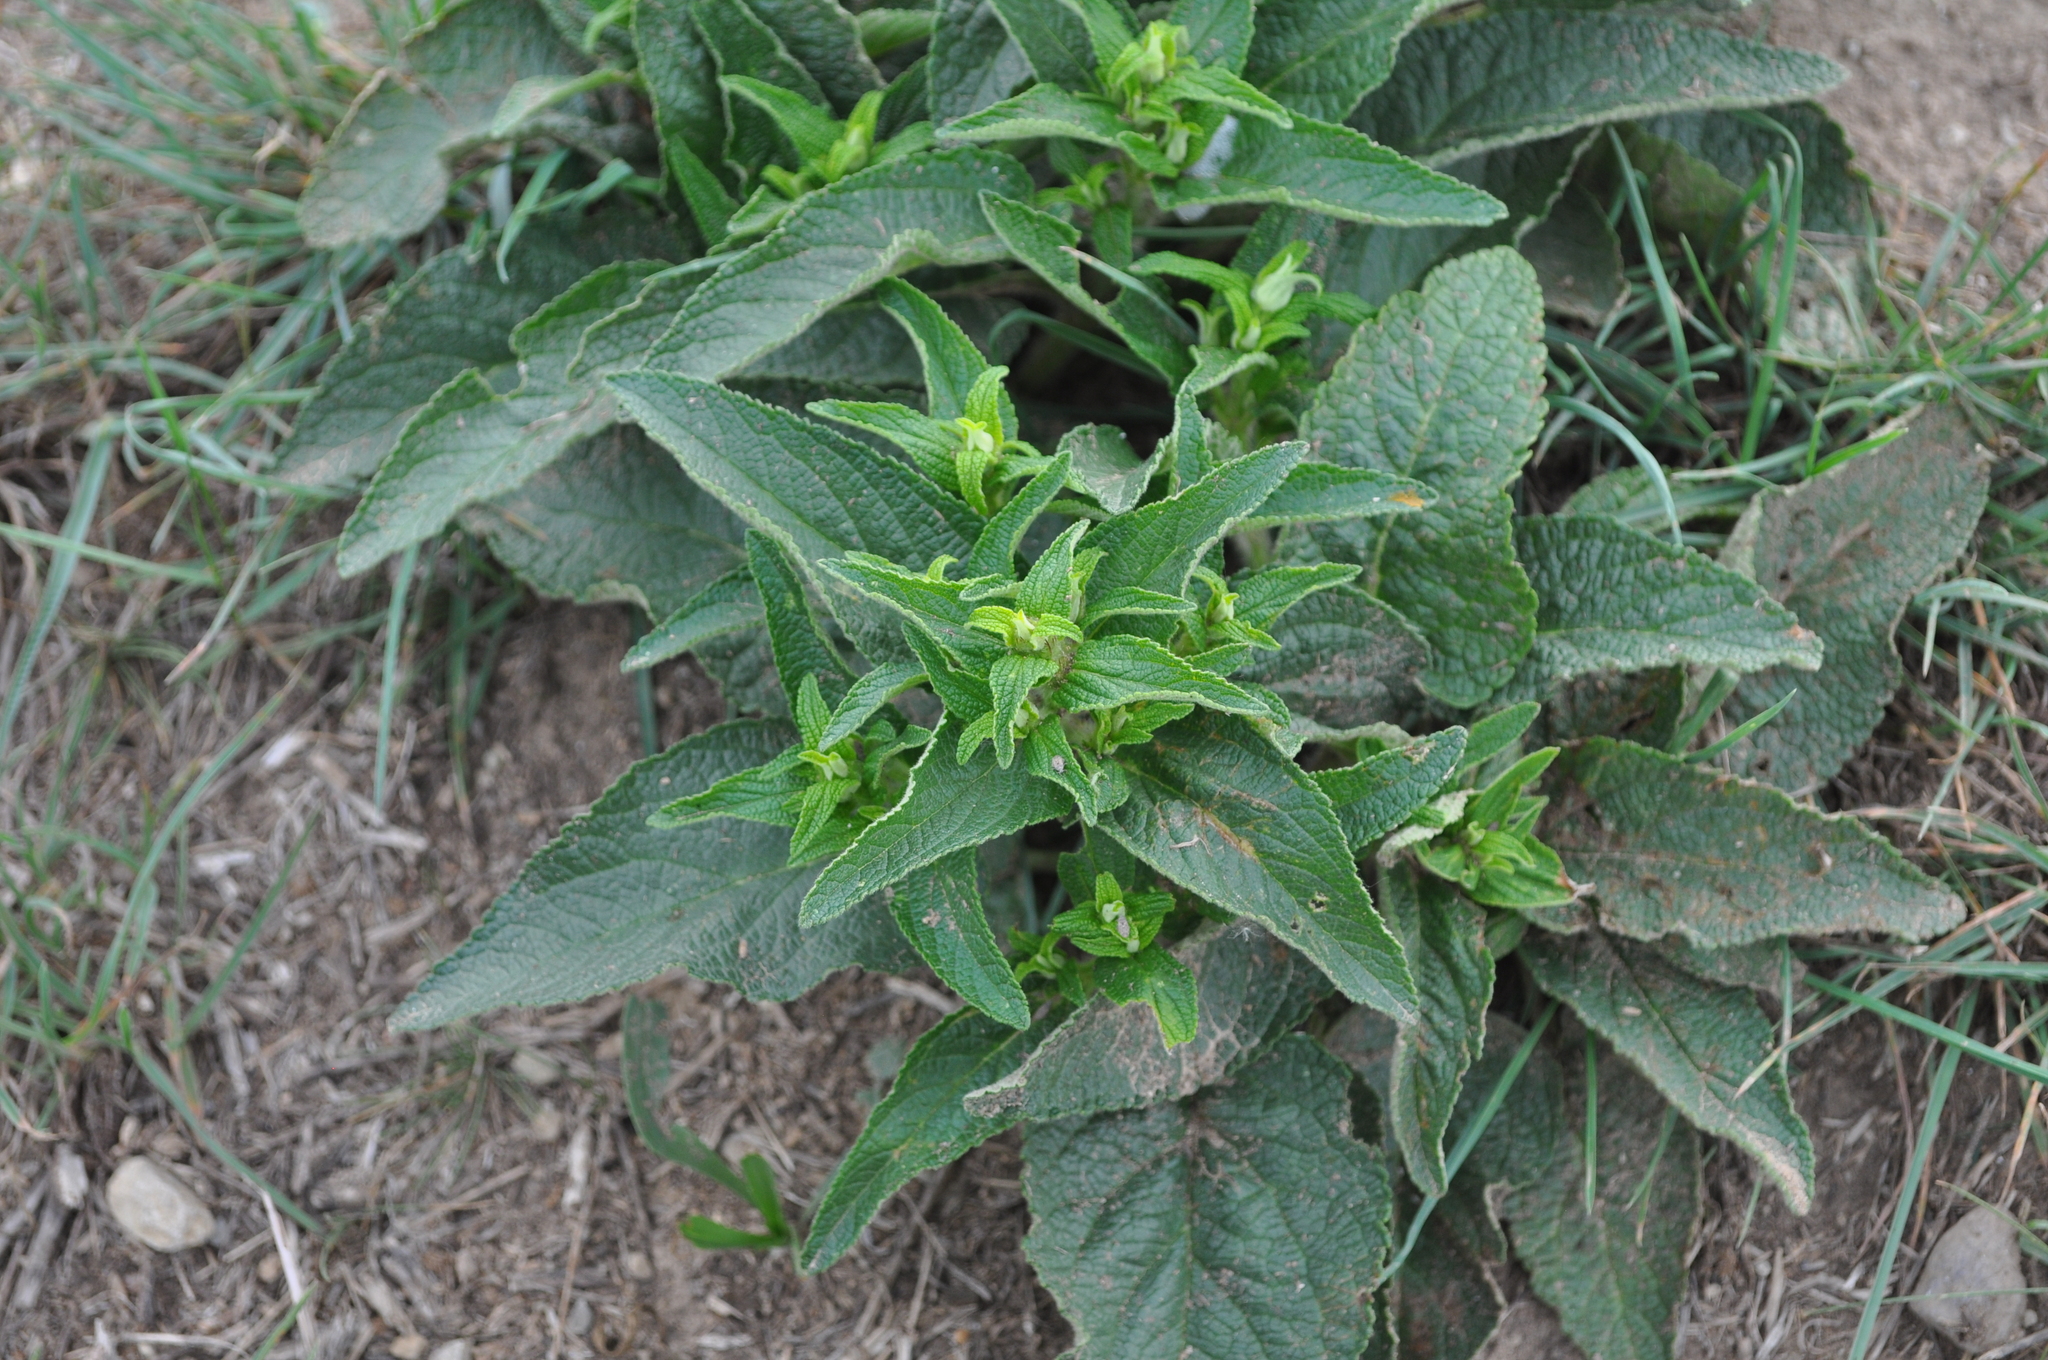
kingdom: Plantae
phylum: Tracheophyta
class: Magnoliopsida
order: Lamiales
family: Lamiaceae
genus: Phlomis
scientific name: Phlomis herba-venti
